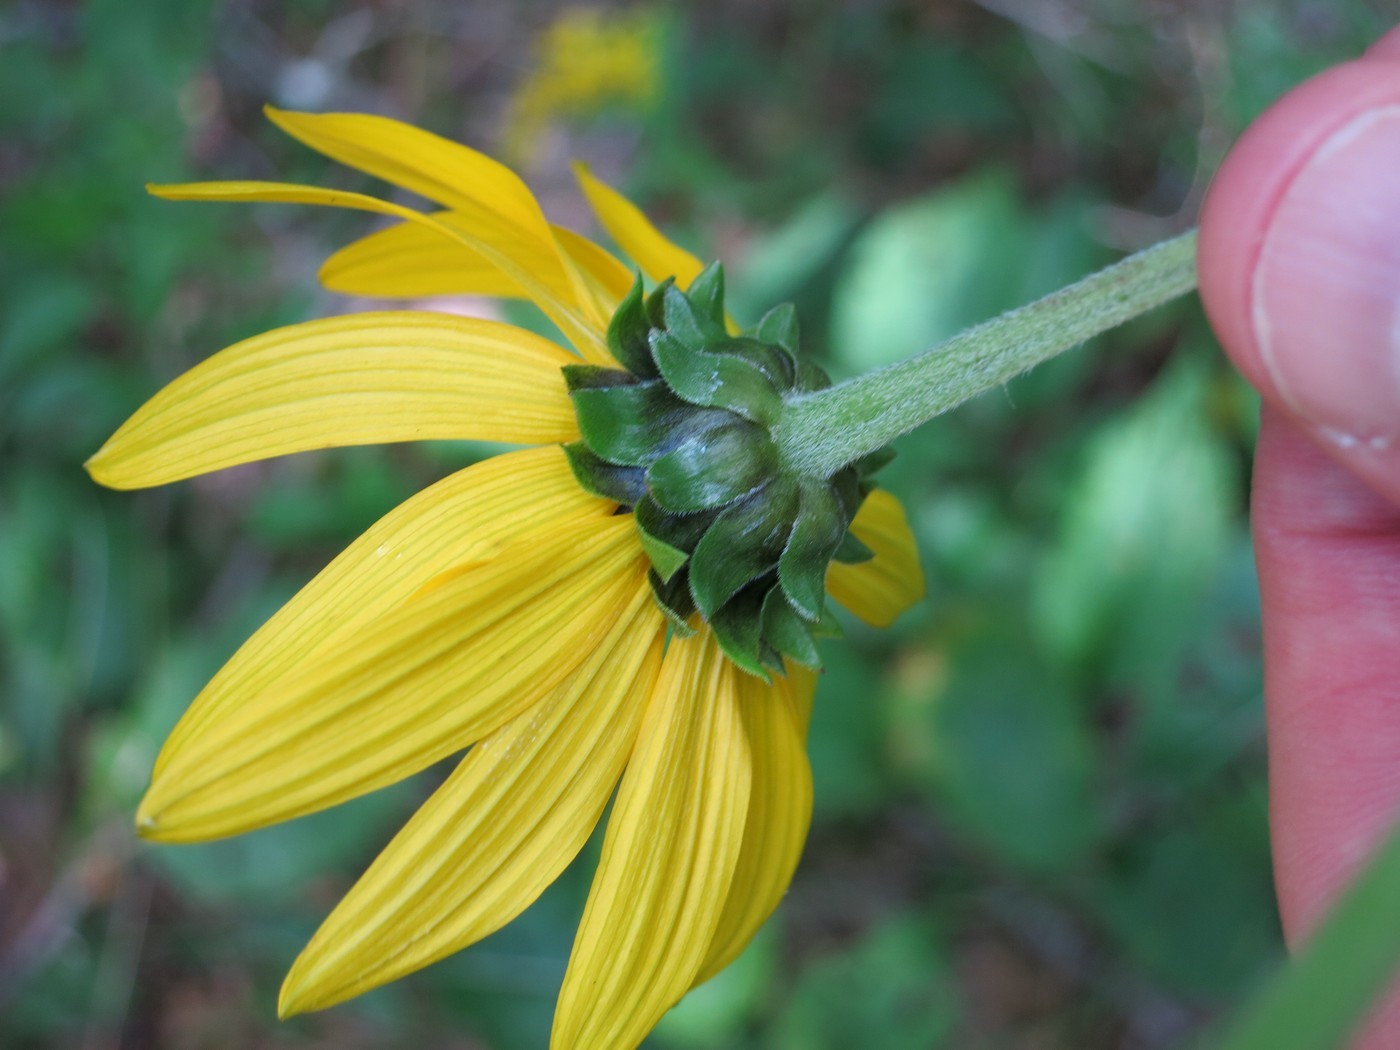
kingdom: Plantae
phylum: Tracheophyta
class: Magnoliopsida
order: Asterales
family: Asteraceae
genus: Helianthus
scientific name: Helianthus atrorubens
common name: Dark-eyed sunflower
